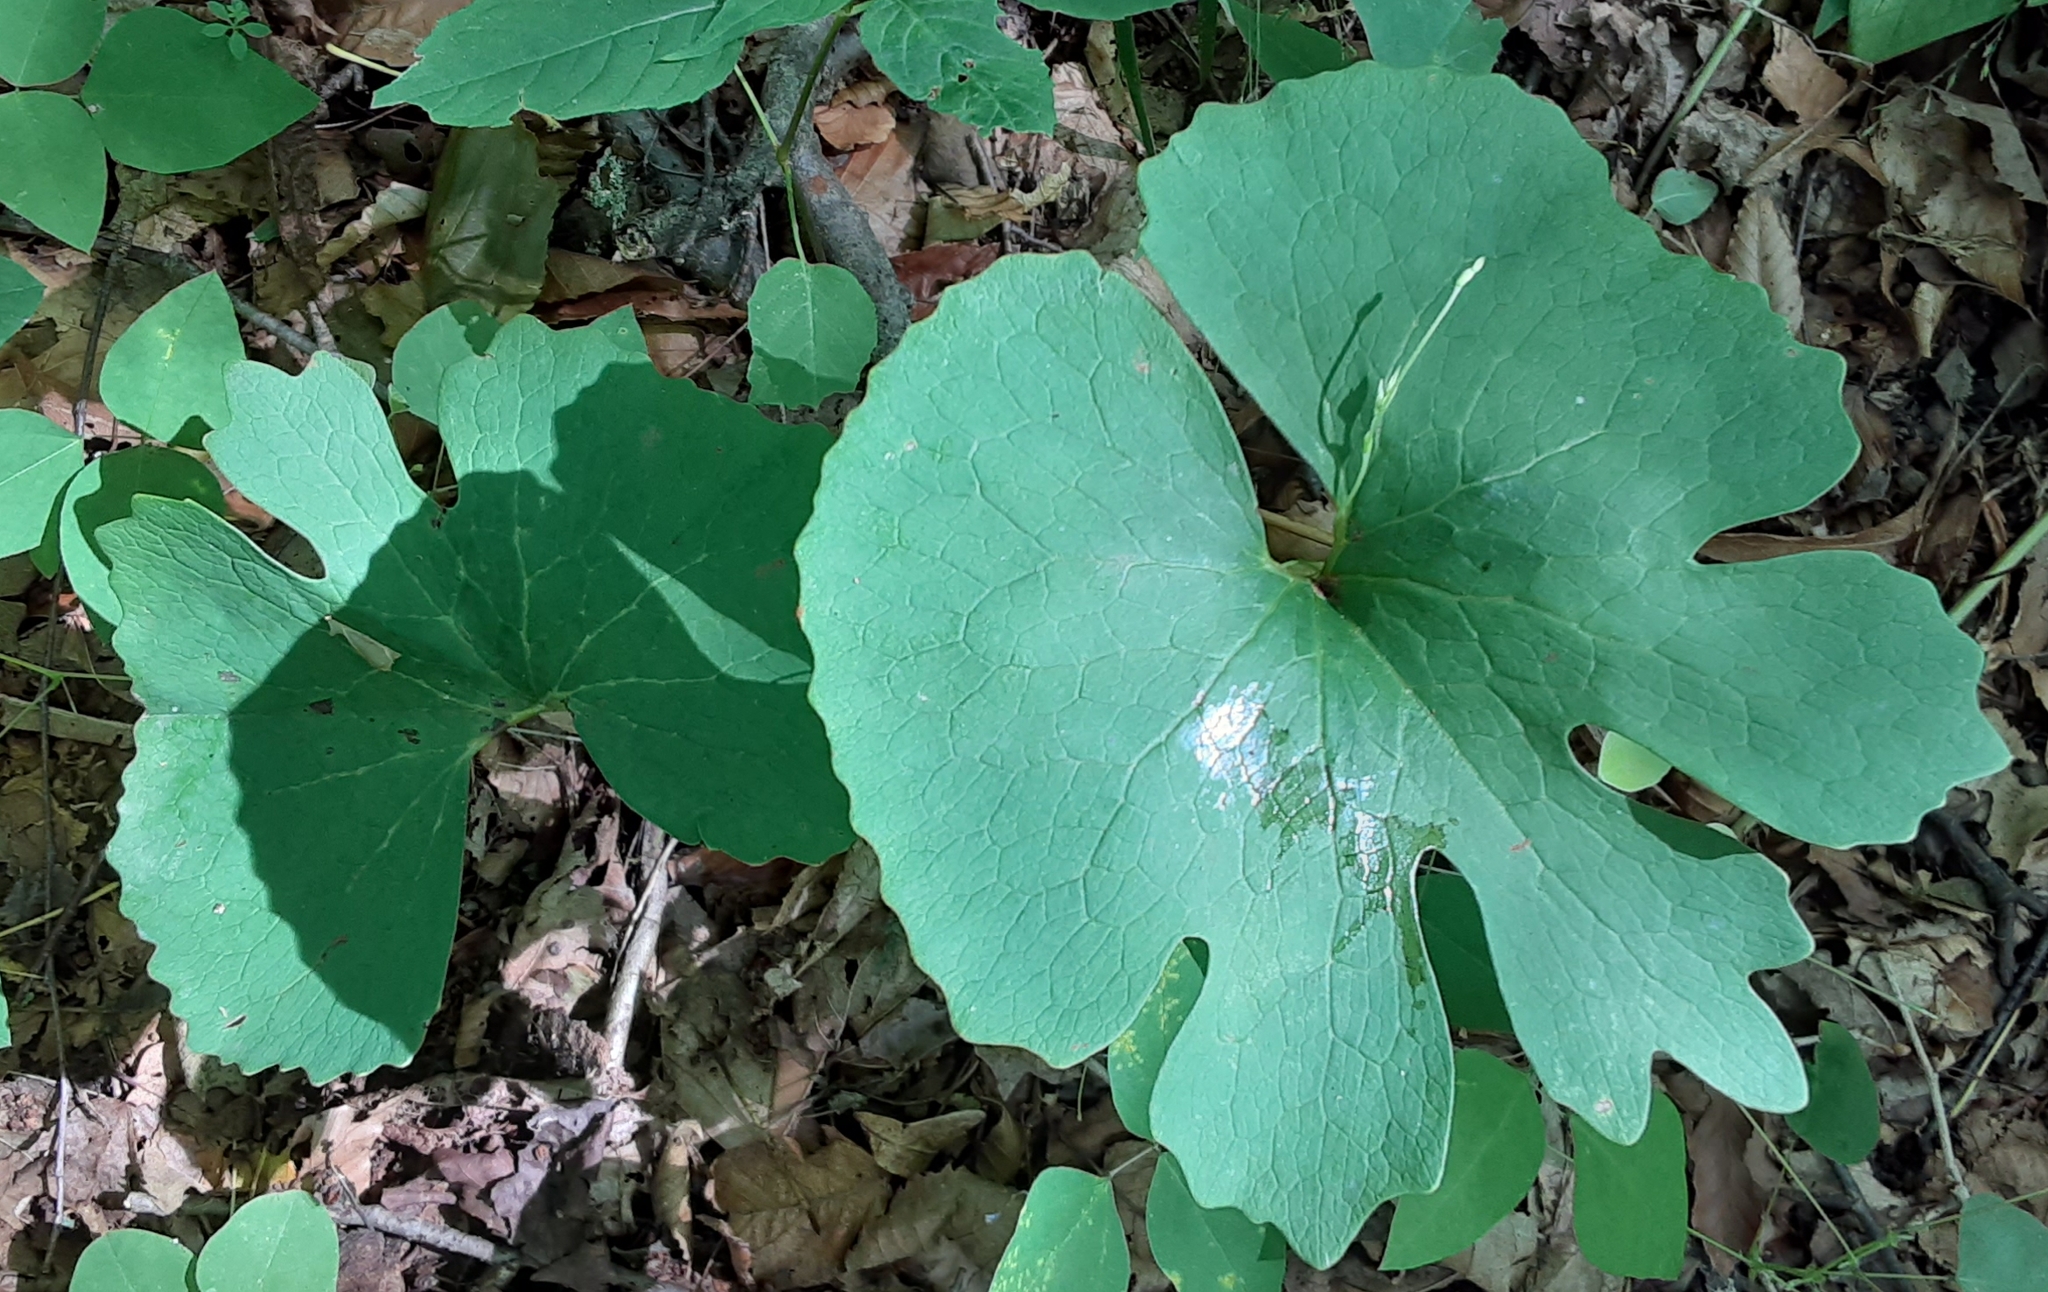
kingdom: Plantae
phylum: Tracheophyta
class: Magnoliopsida
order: Ranunculales
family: Papaveraceae
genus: Sanguinaria
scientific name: Sanguinaria canadensis
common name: Bloodroot
